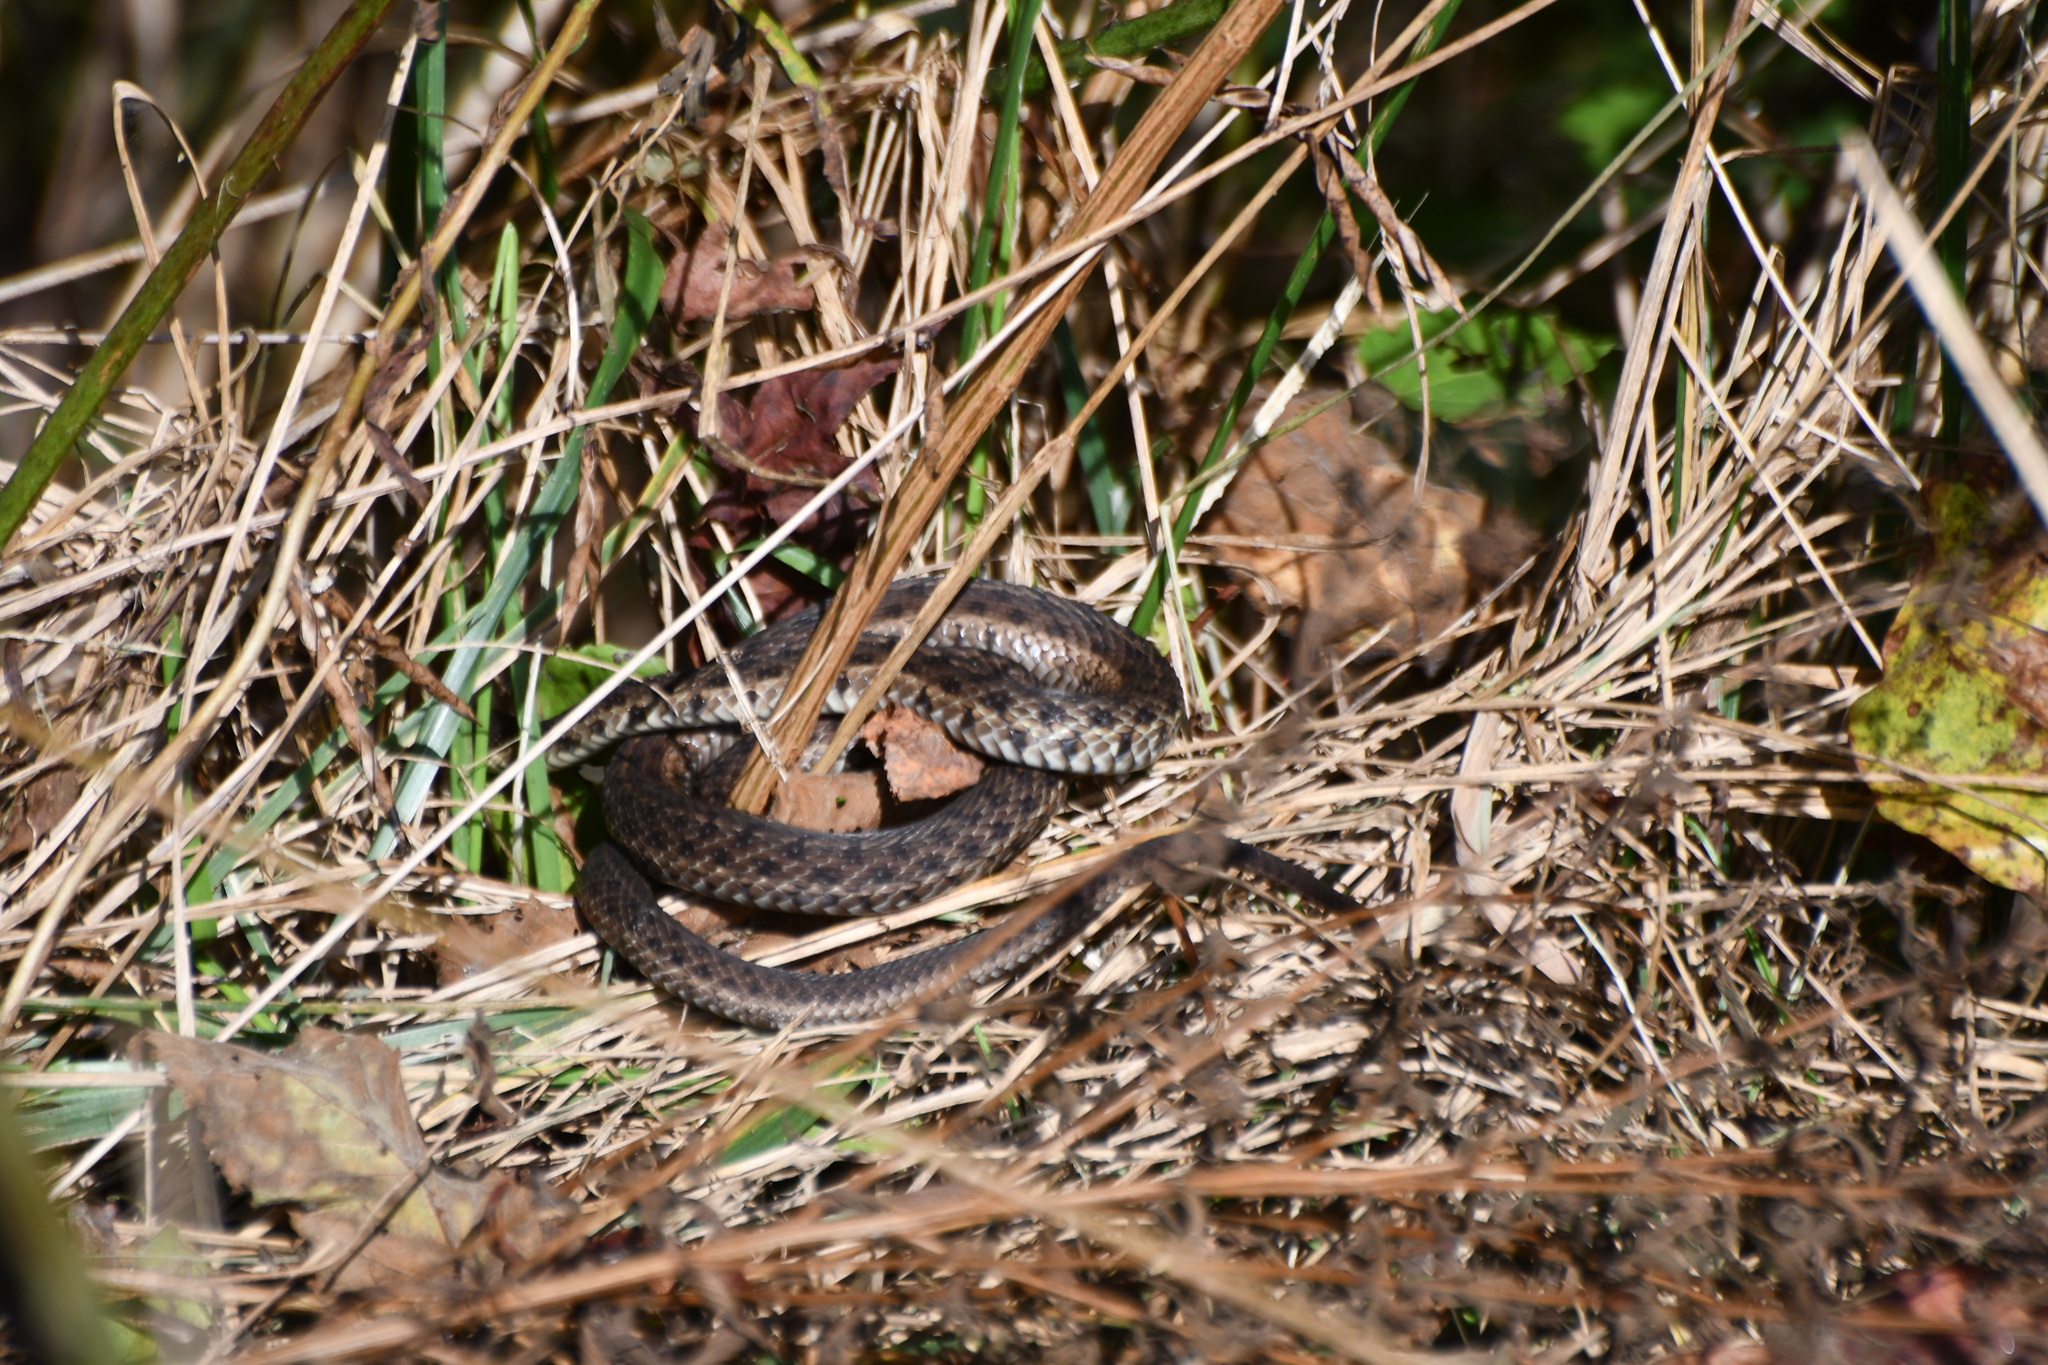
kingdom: Animalia
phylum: Chordata
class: Squamata
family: Colubridae
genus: Thamnophis
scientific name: Thamnophis sirtalis
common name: Common garter snake
